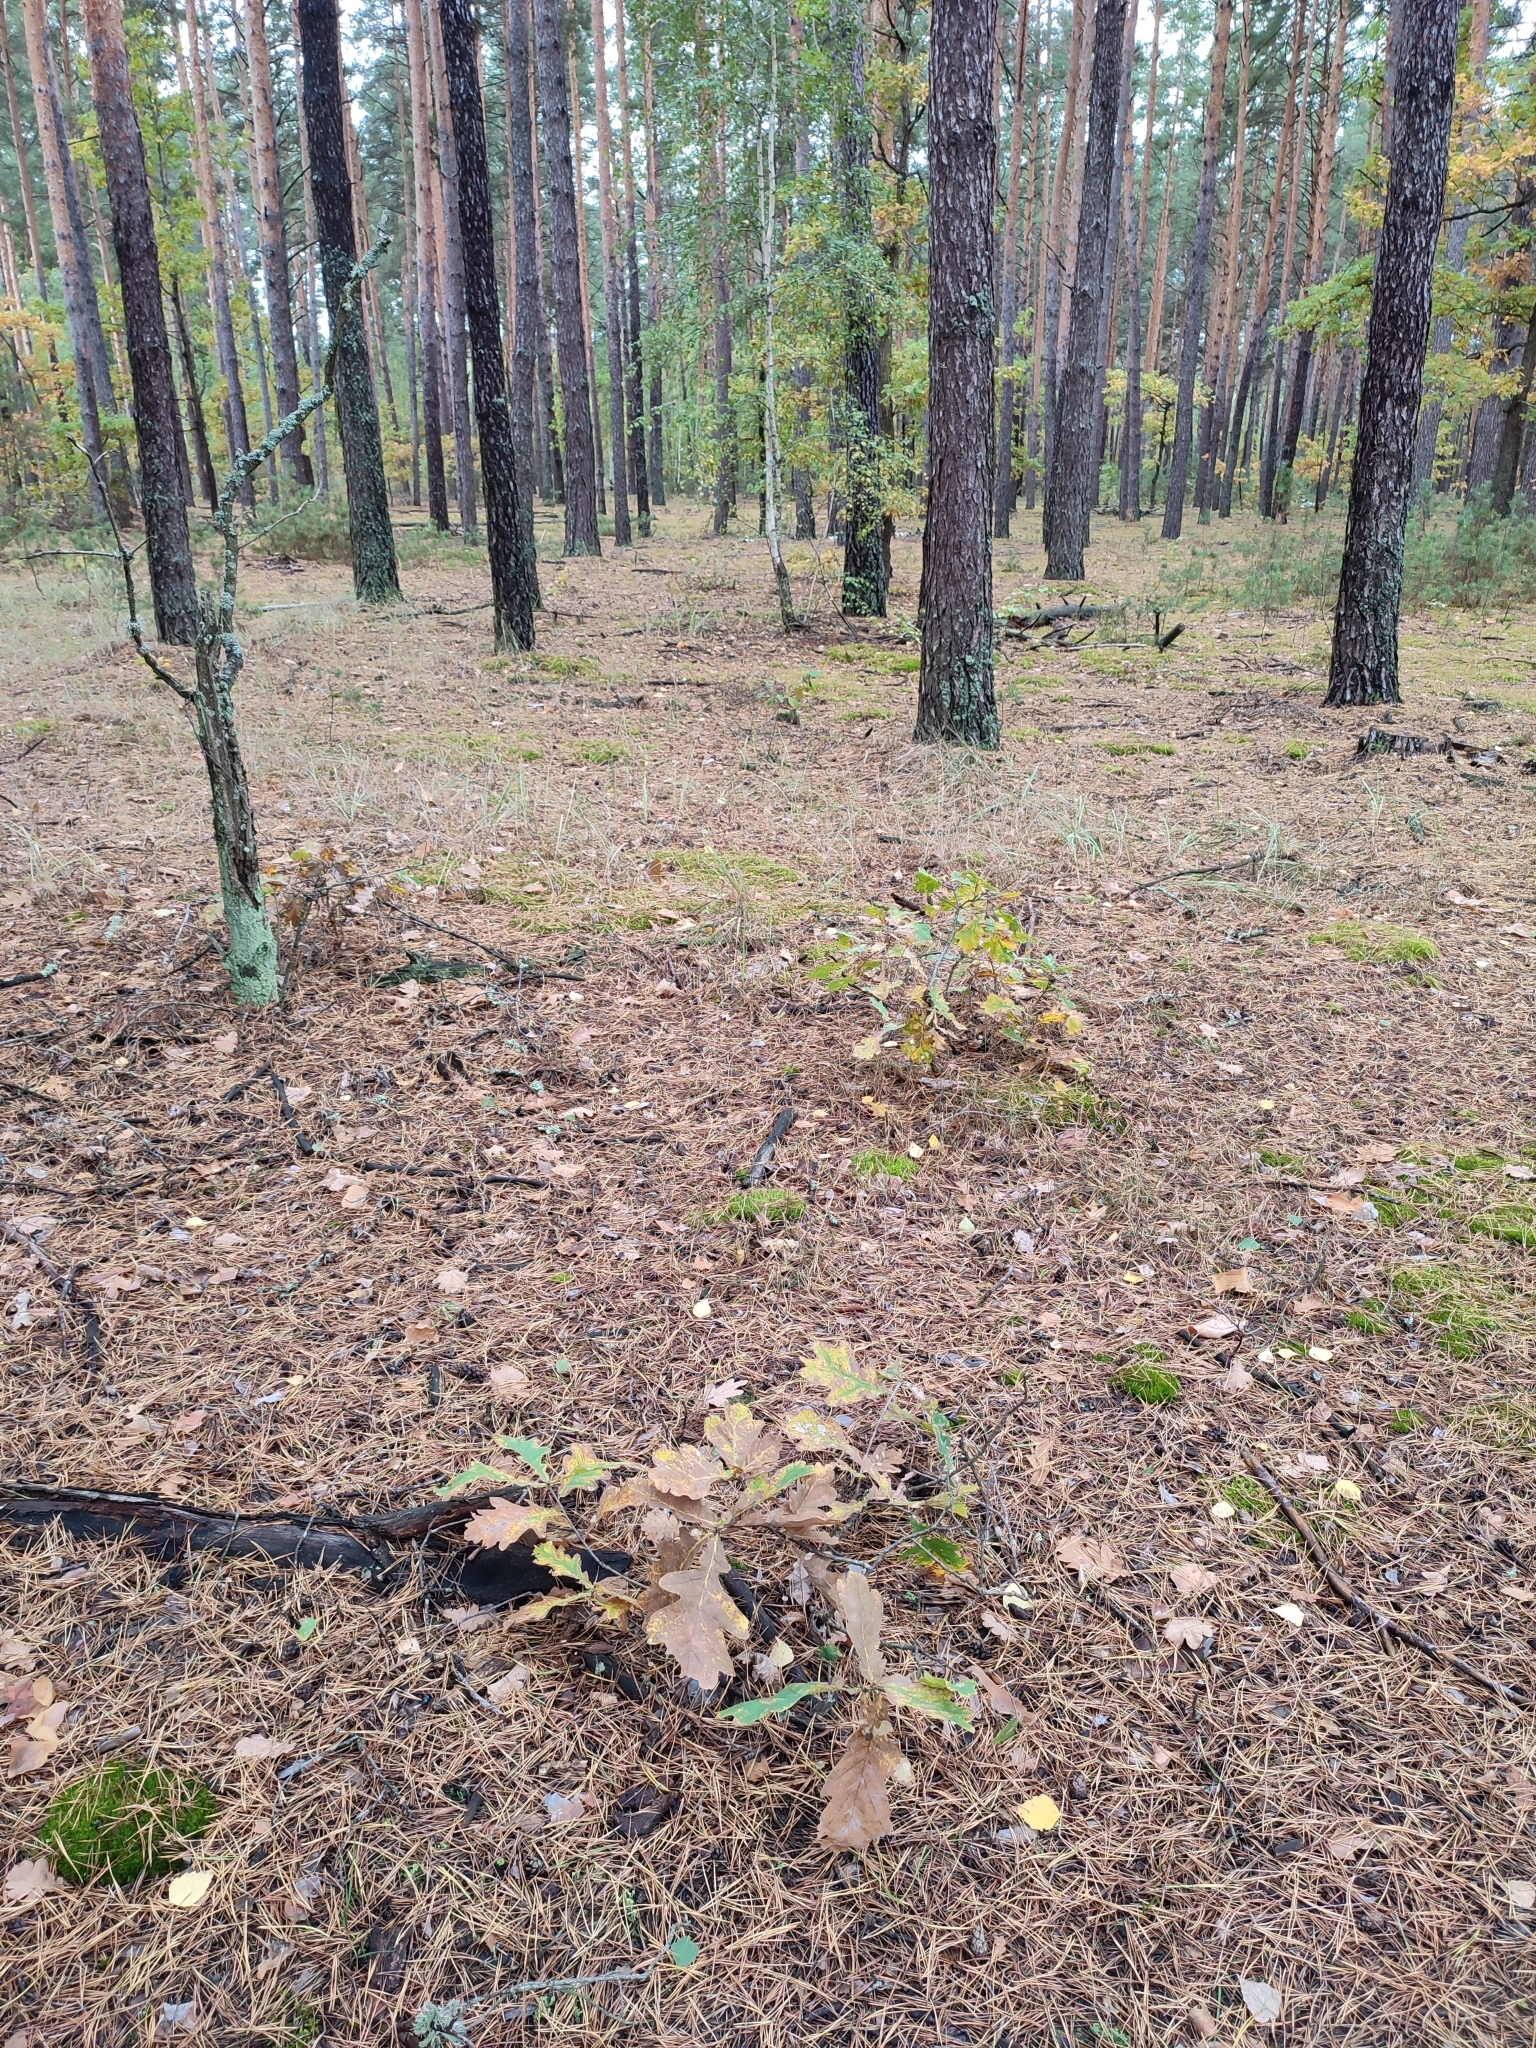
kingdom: Plantae
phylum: Tracheophyta
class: Magnoliopsida
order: Fagales
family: Fagaceae
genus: Quercus
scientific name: Quercus robur
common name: Pedunculate oak
